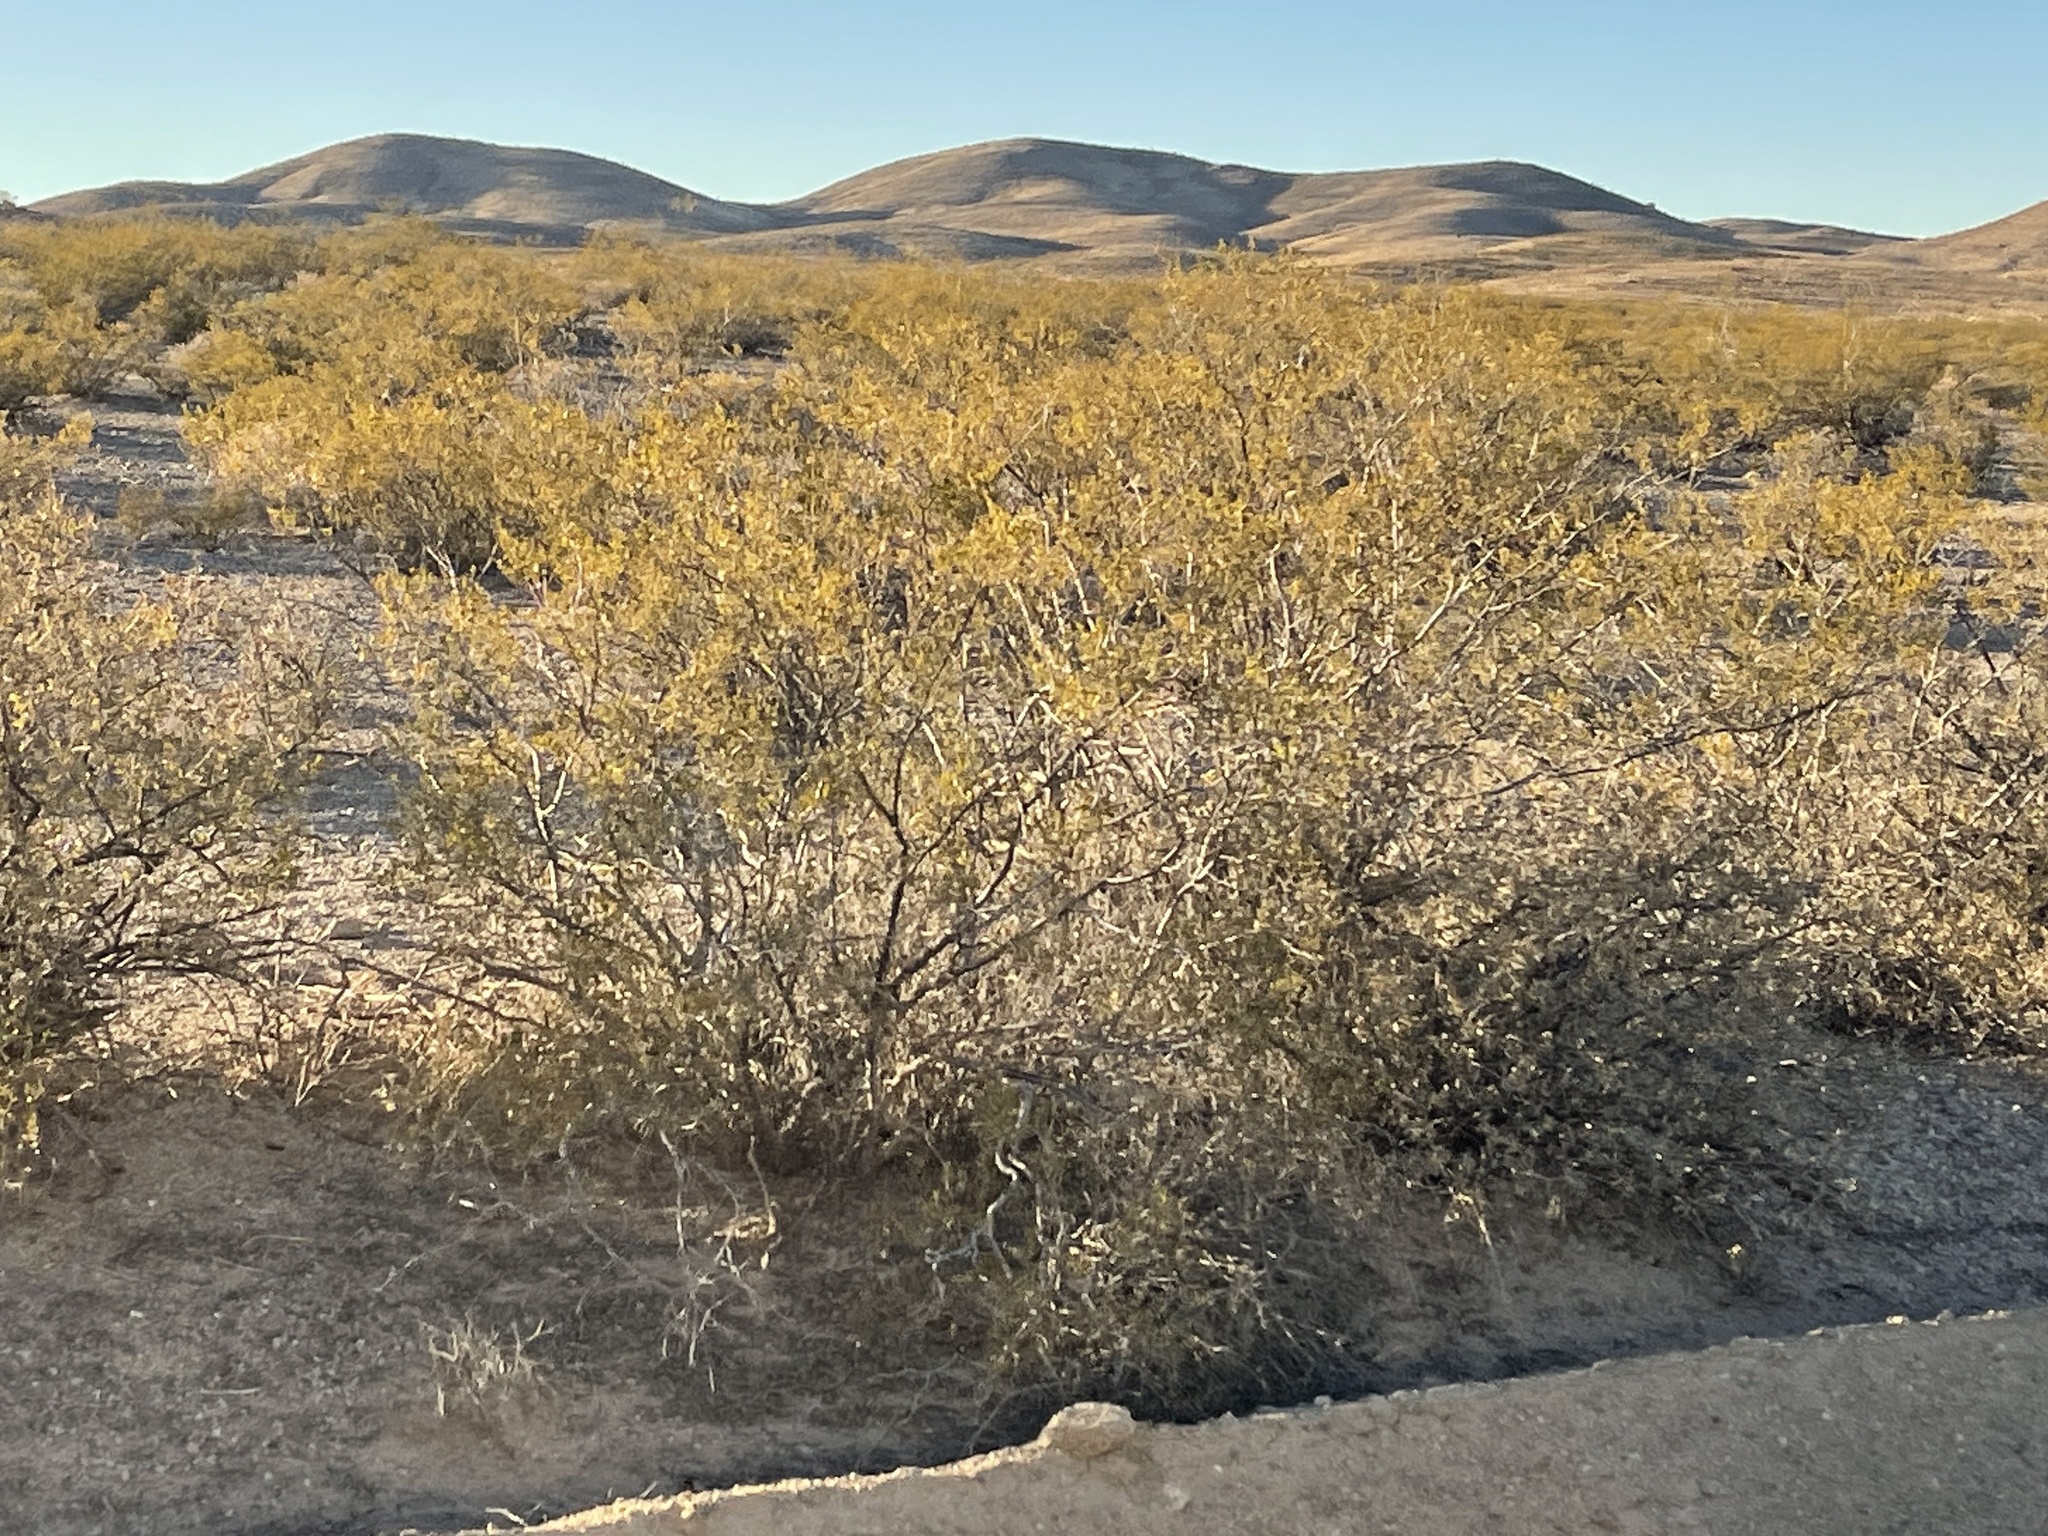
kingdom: Plantae
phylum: Tracheophyta
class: Magnoliopsida
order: Zygophyllales
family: Zygophyllaceae
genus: Larrea
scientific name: Larrea tridentata
